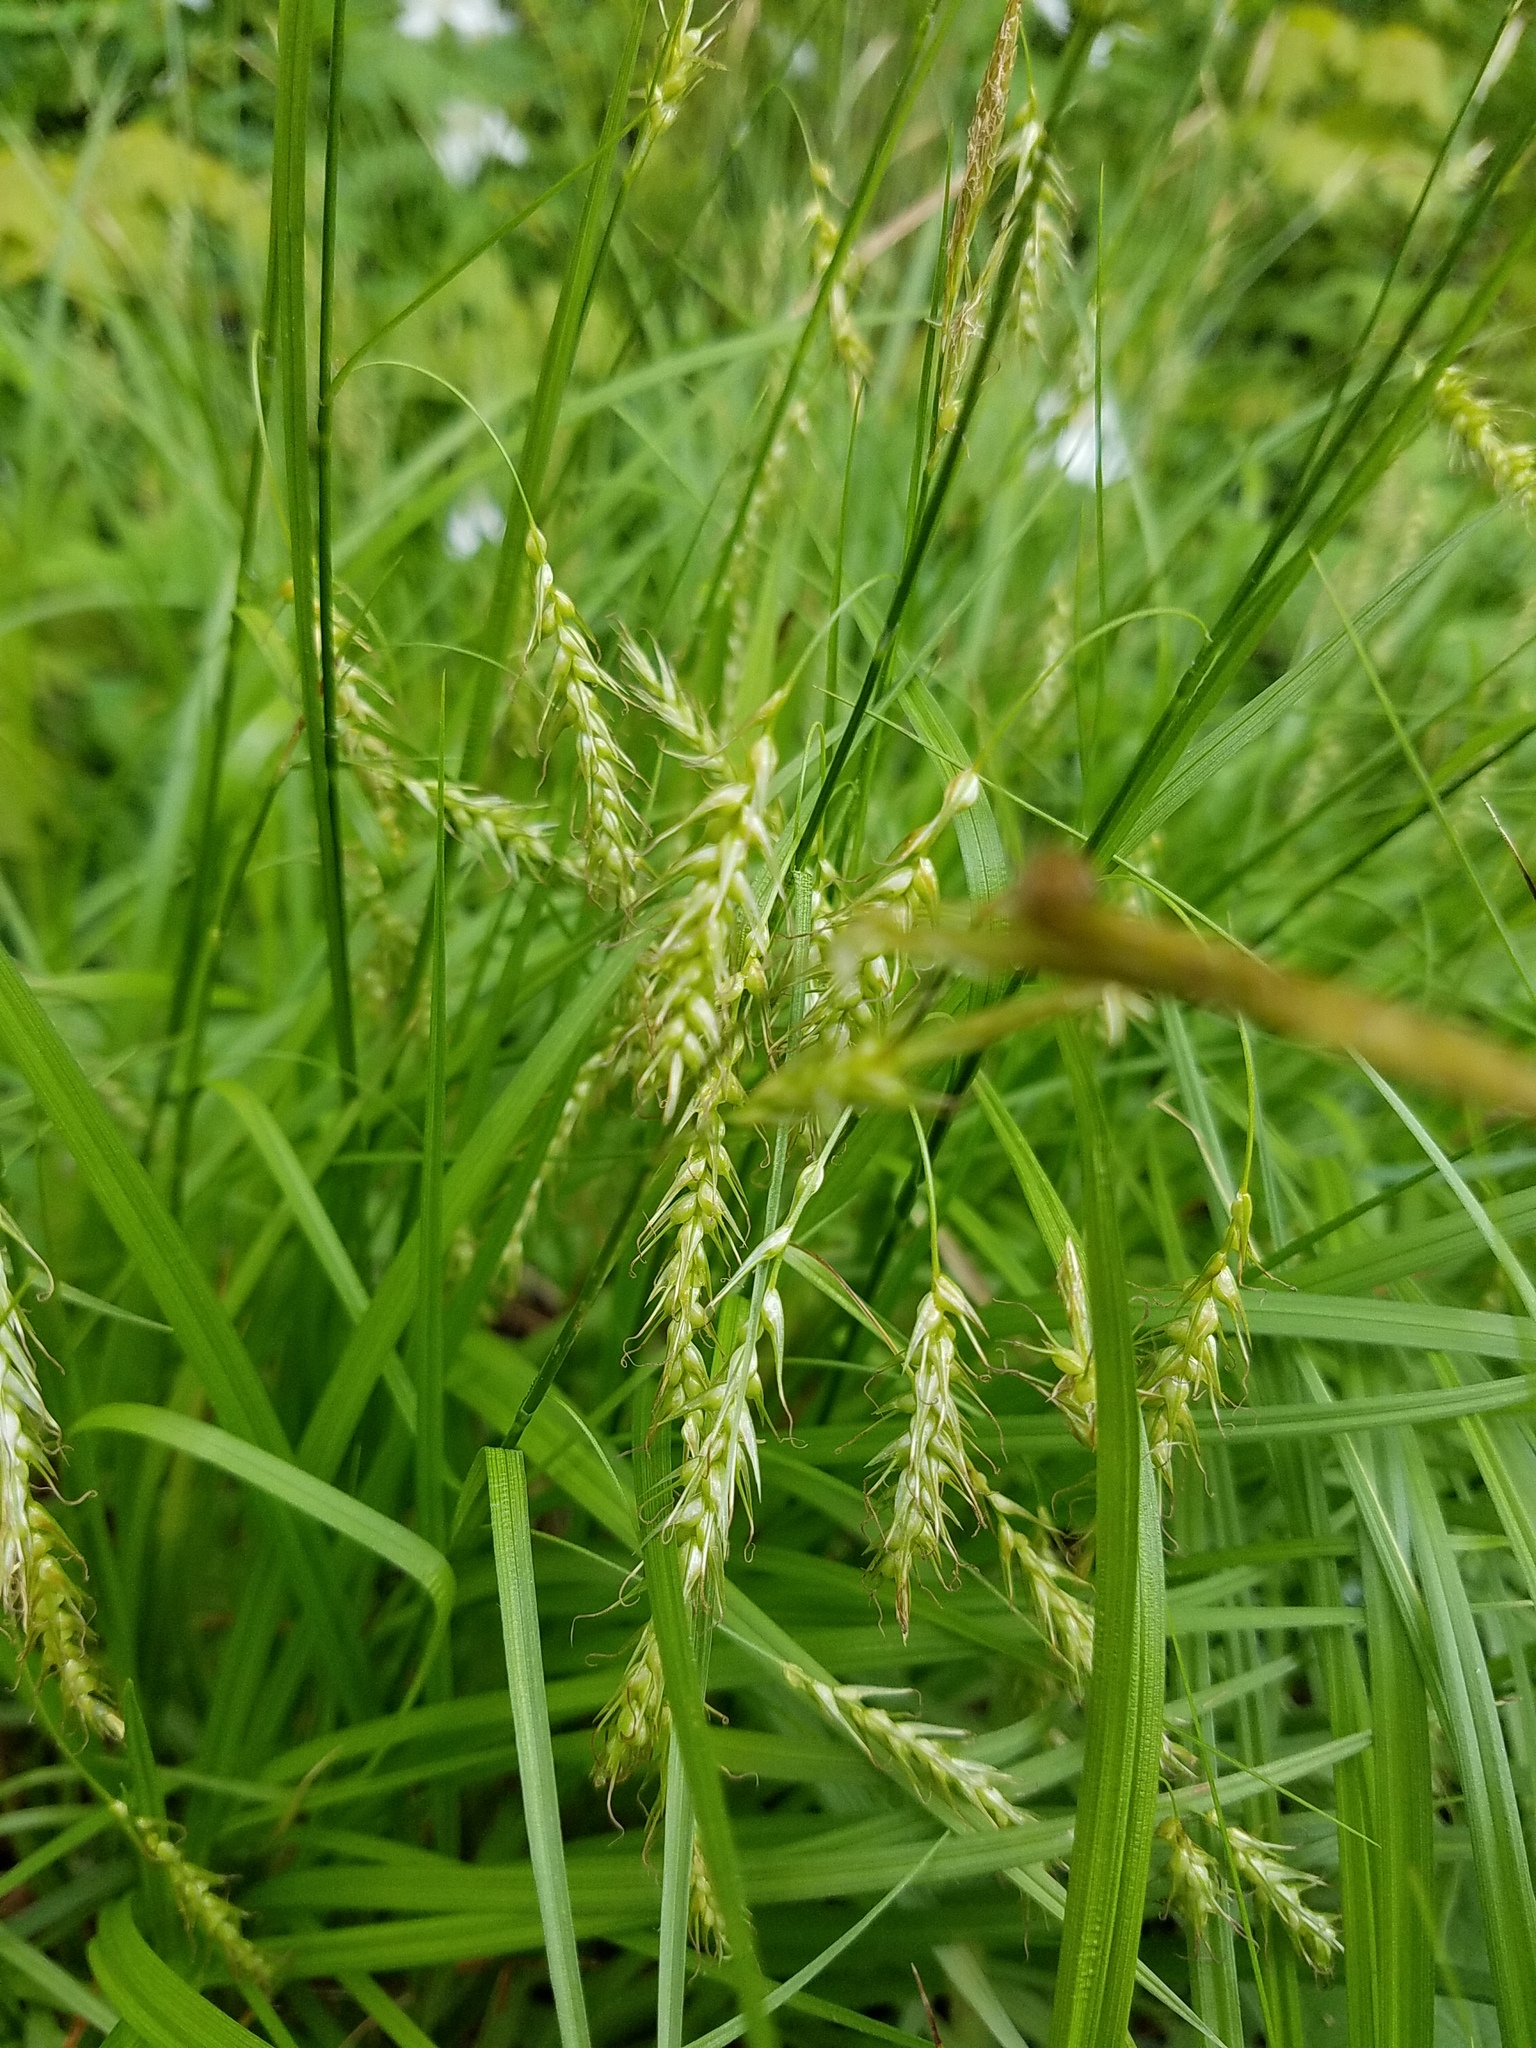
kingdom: Plantae
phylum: Tracheophyta
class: Liliopsida
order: Poales
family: Cyperaceae
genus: Carex
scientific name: Carex sprengelii
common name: Long-beaked sedge
